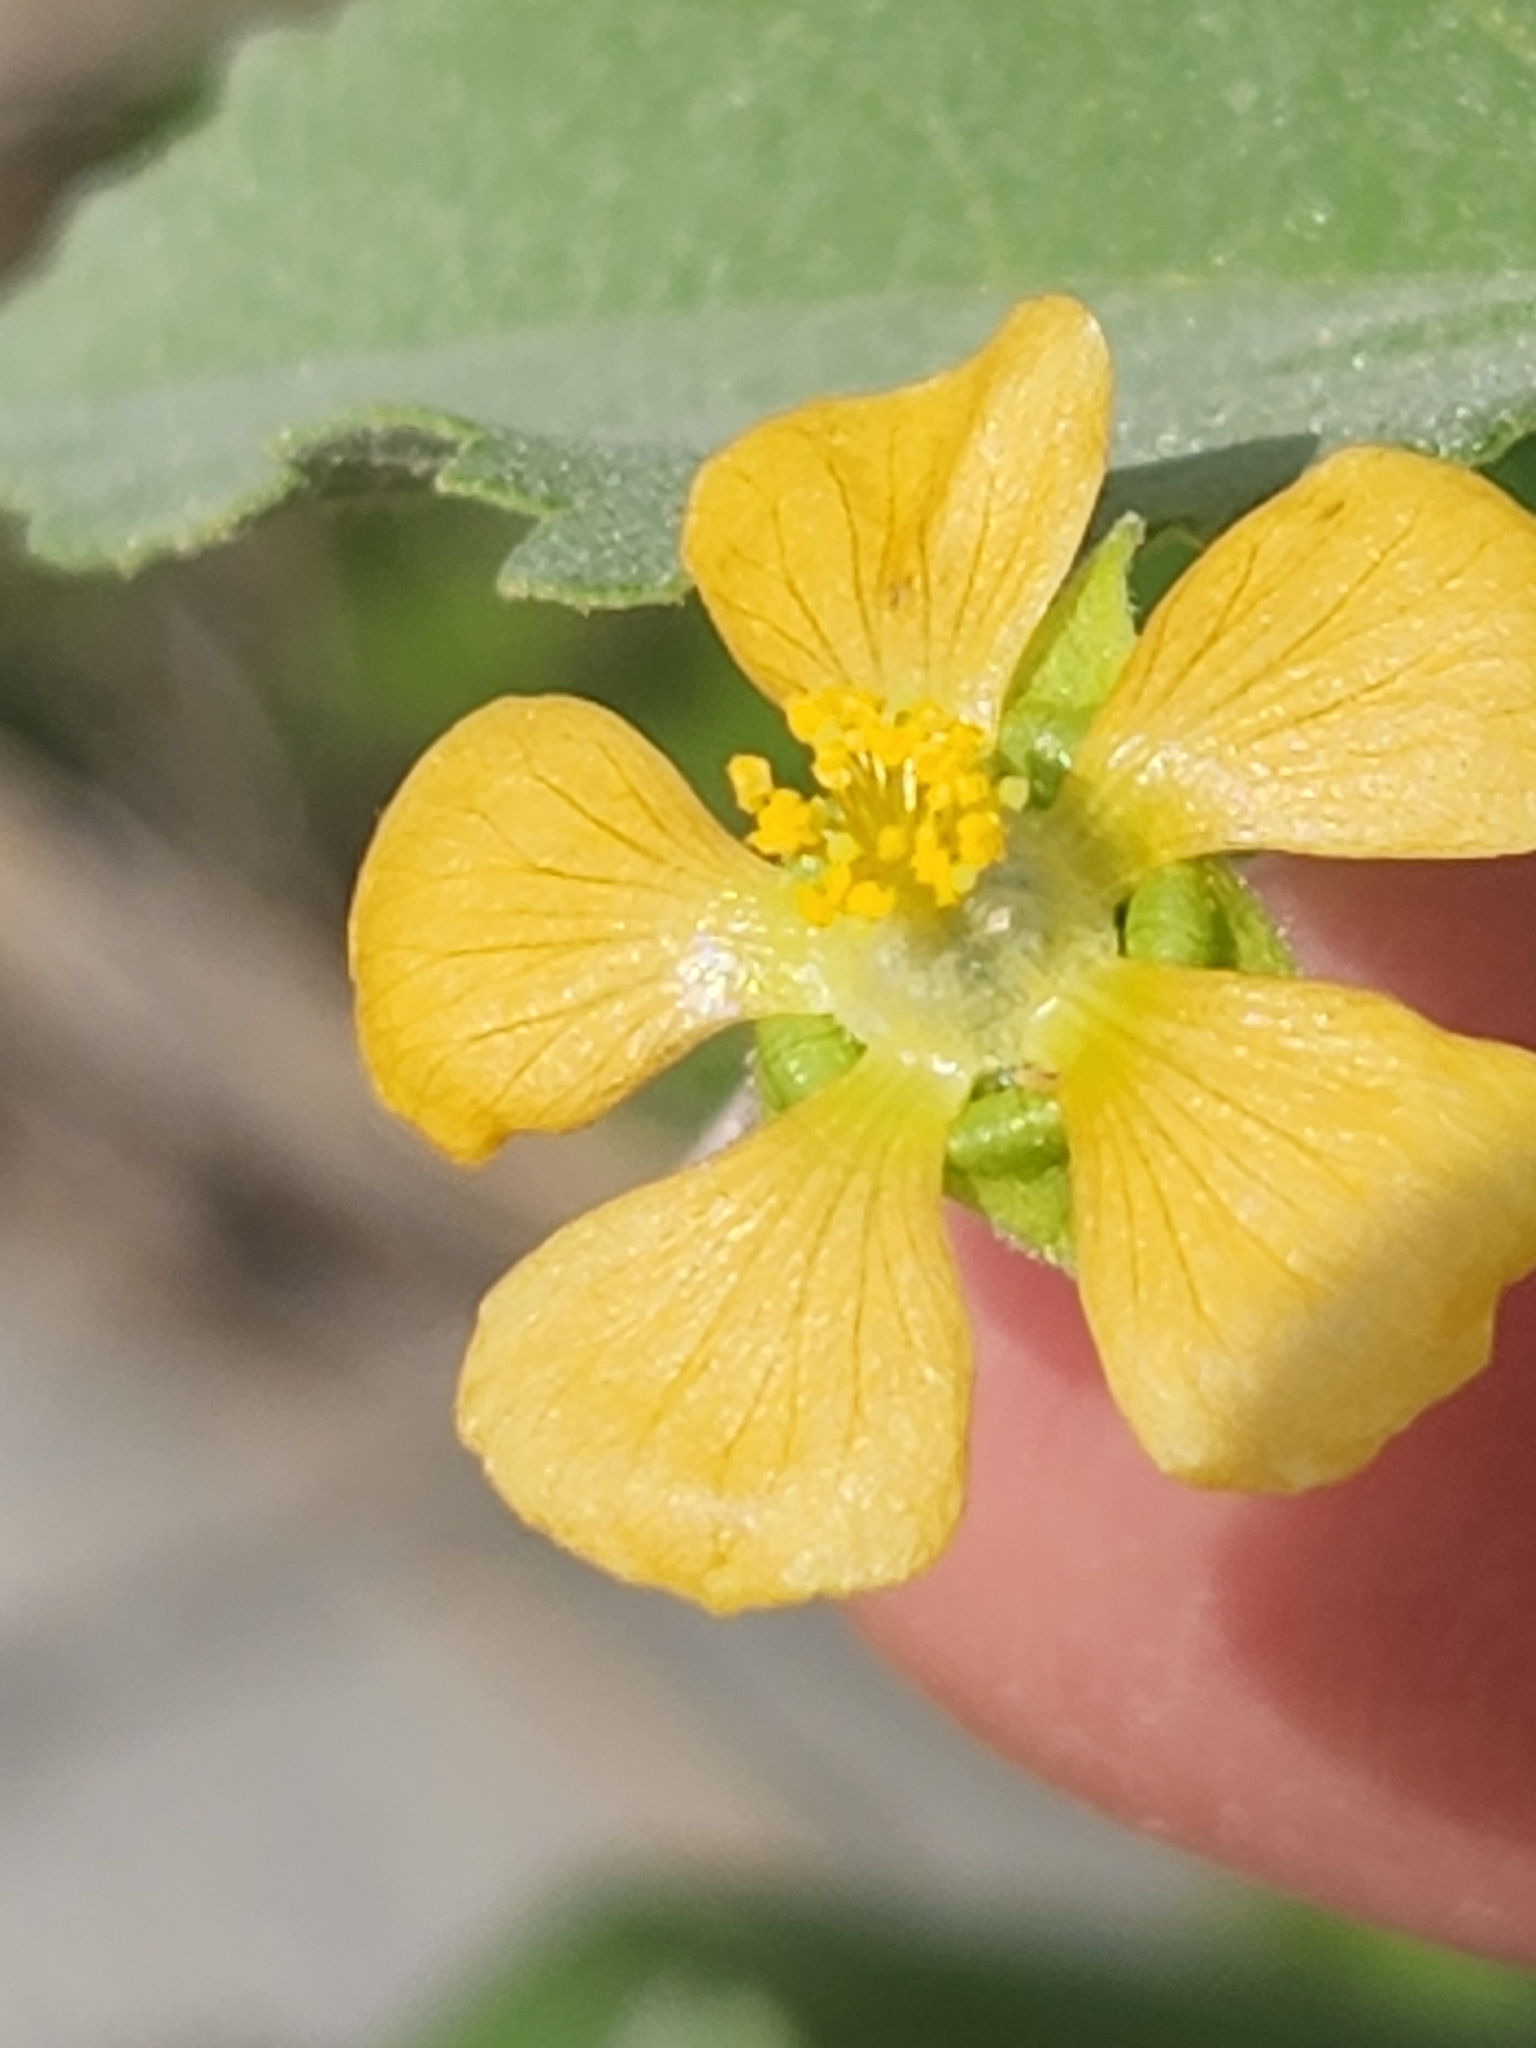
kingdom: Plantae
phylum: Tracheophyta
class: Magnoliopsida
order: Malvales
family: Malvaceae
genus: Abutilon
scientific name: Abutilon fruticosum
